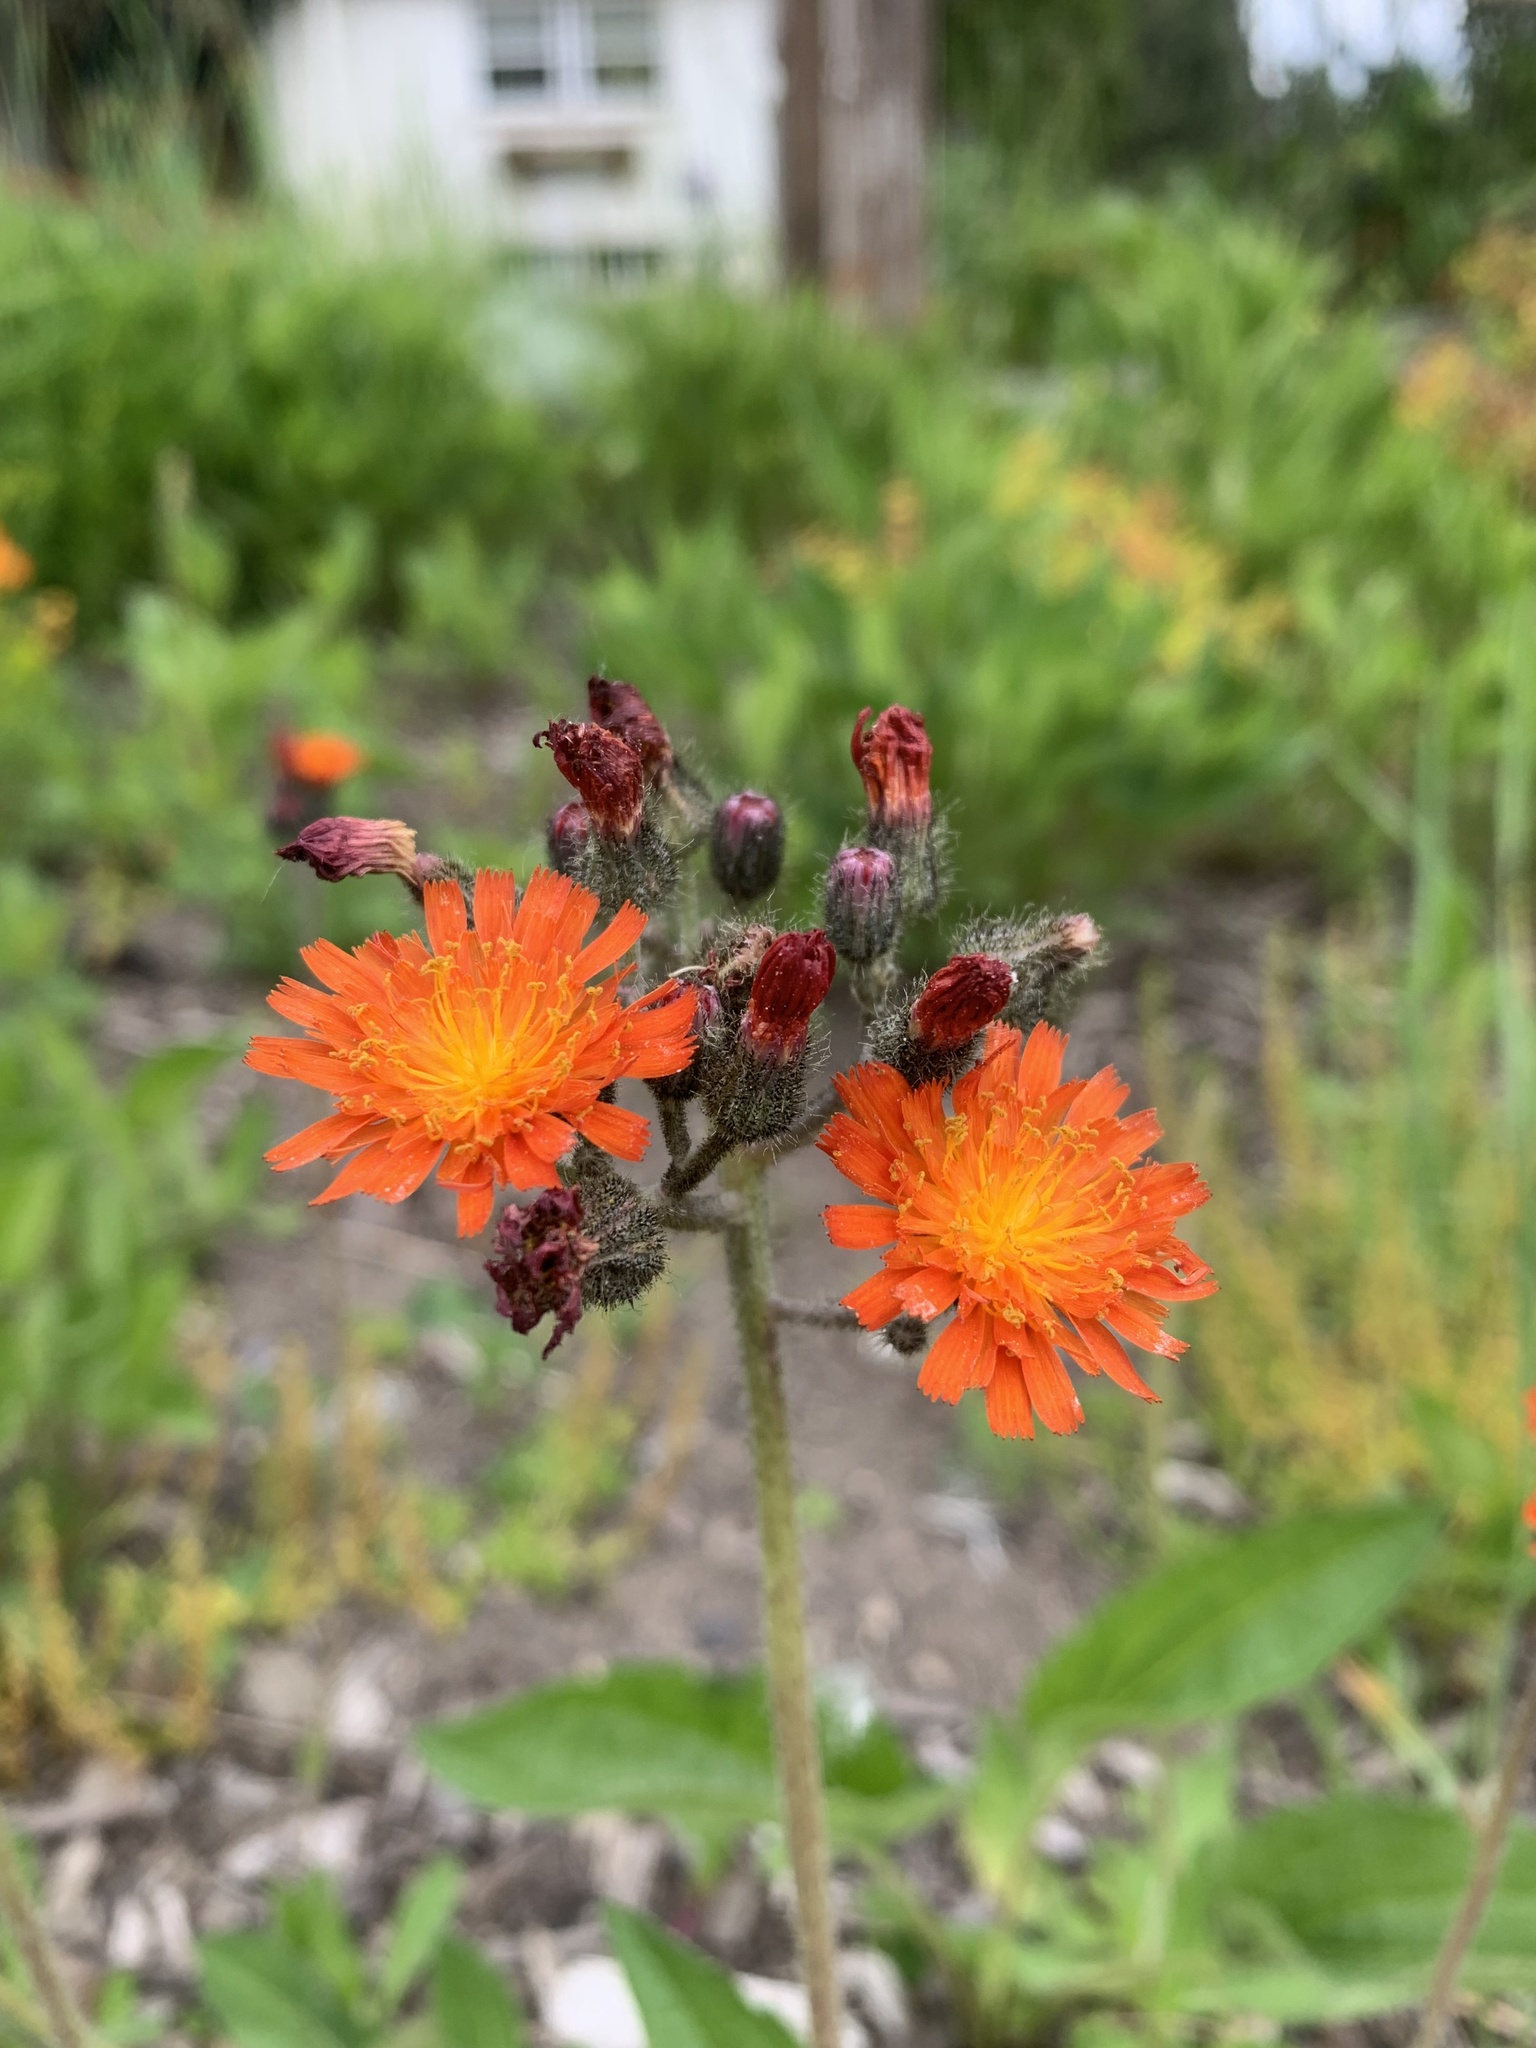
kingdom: Plantae
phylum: Tracheophyta
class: Magnoliopsida
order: Asterales
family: Asteraceae
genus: Pilosella
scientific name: Pilosella aurantiaca
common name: Fox-and-cubs
